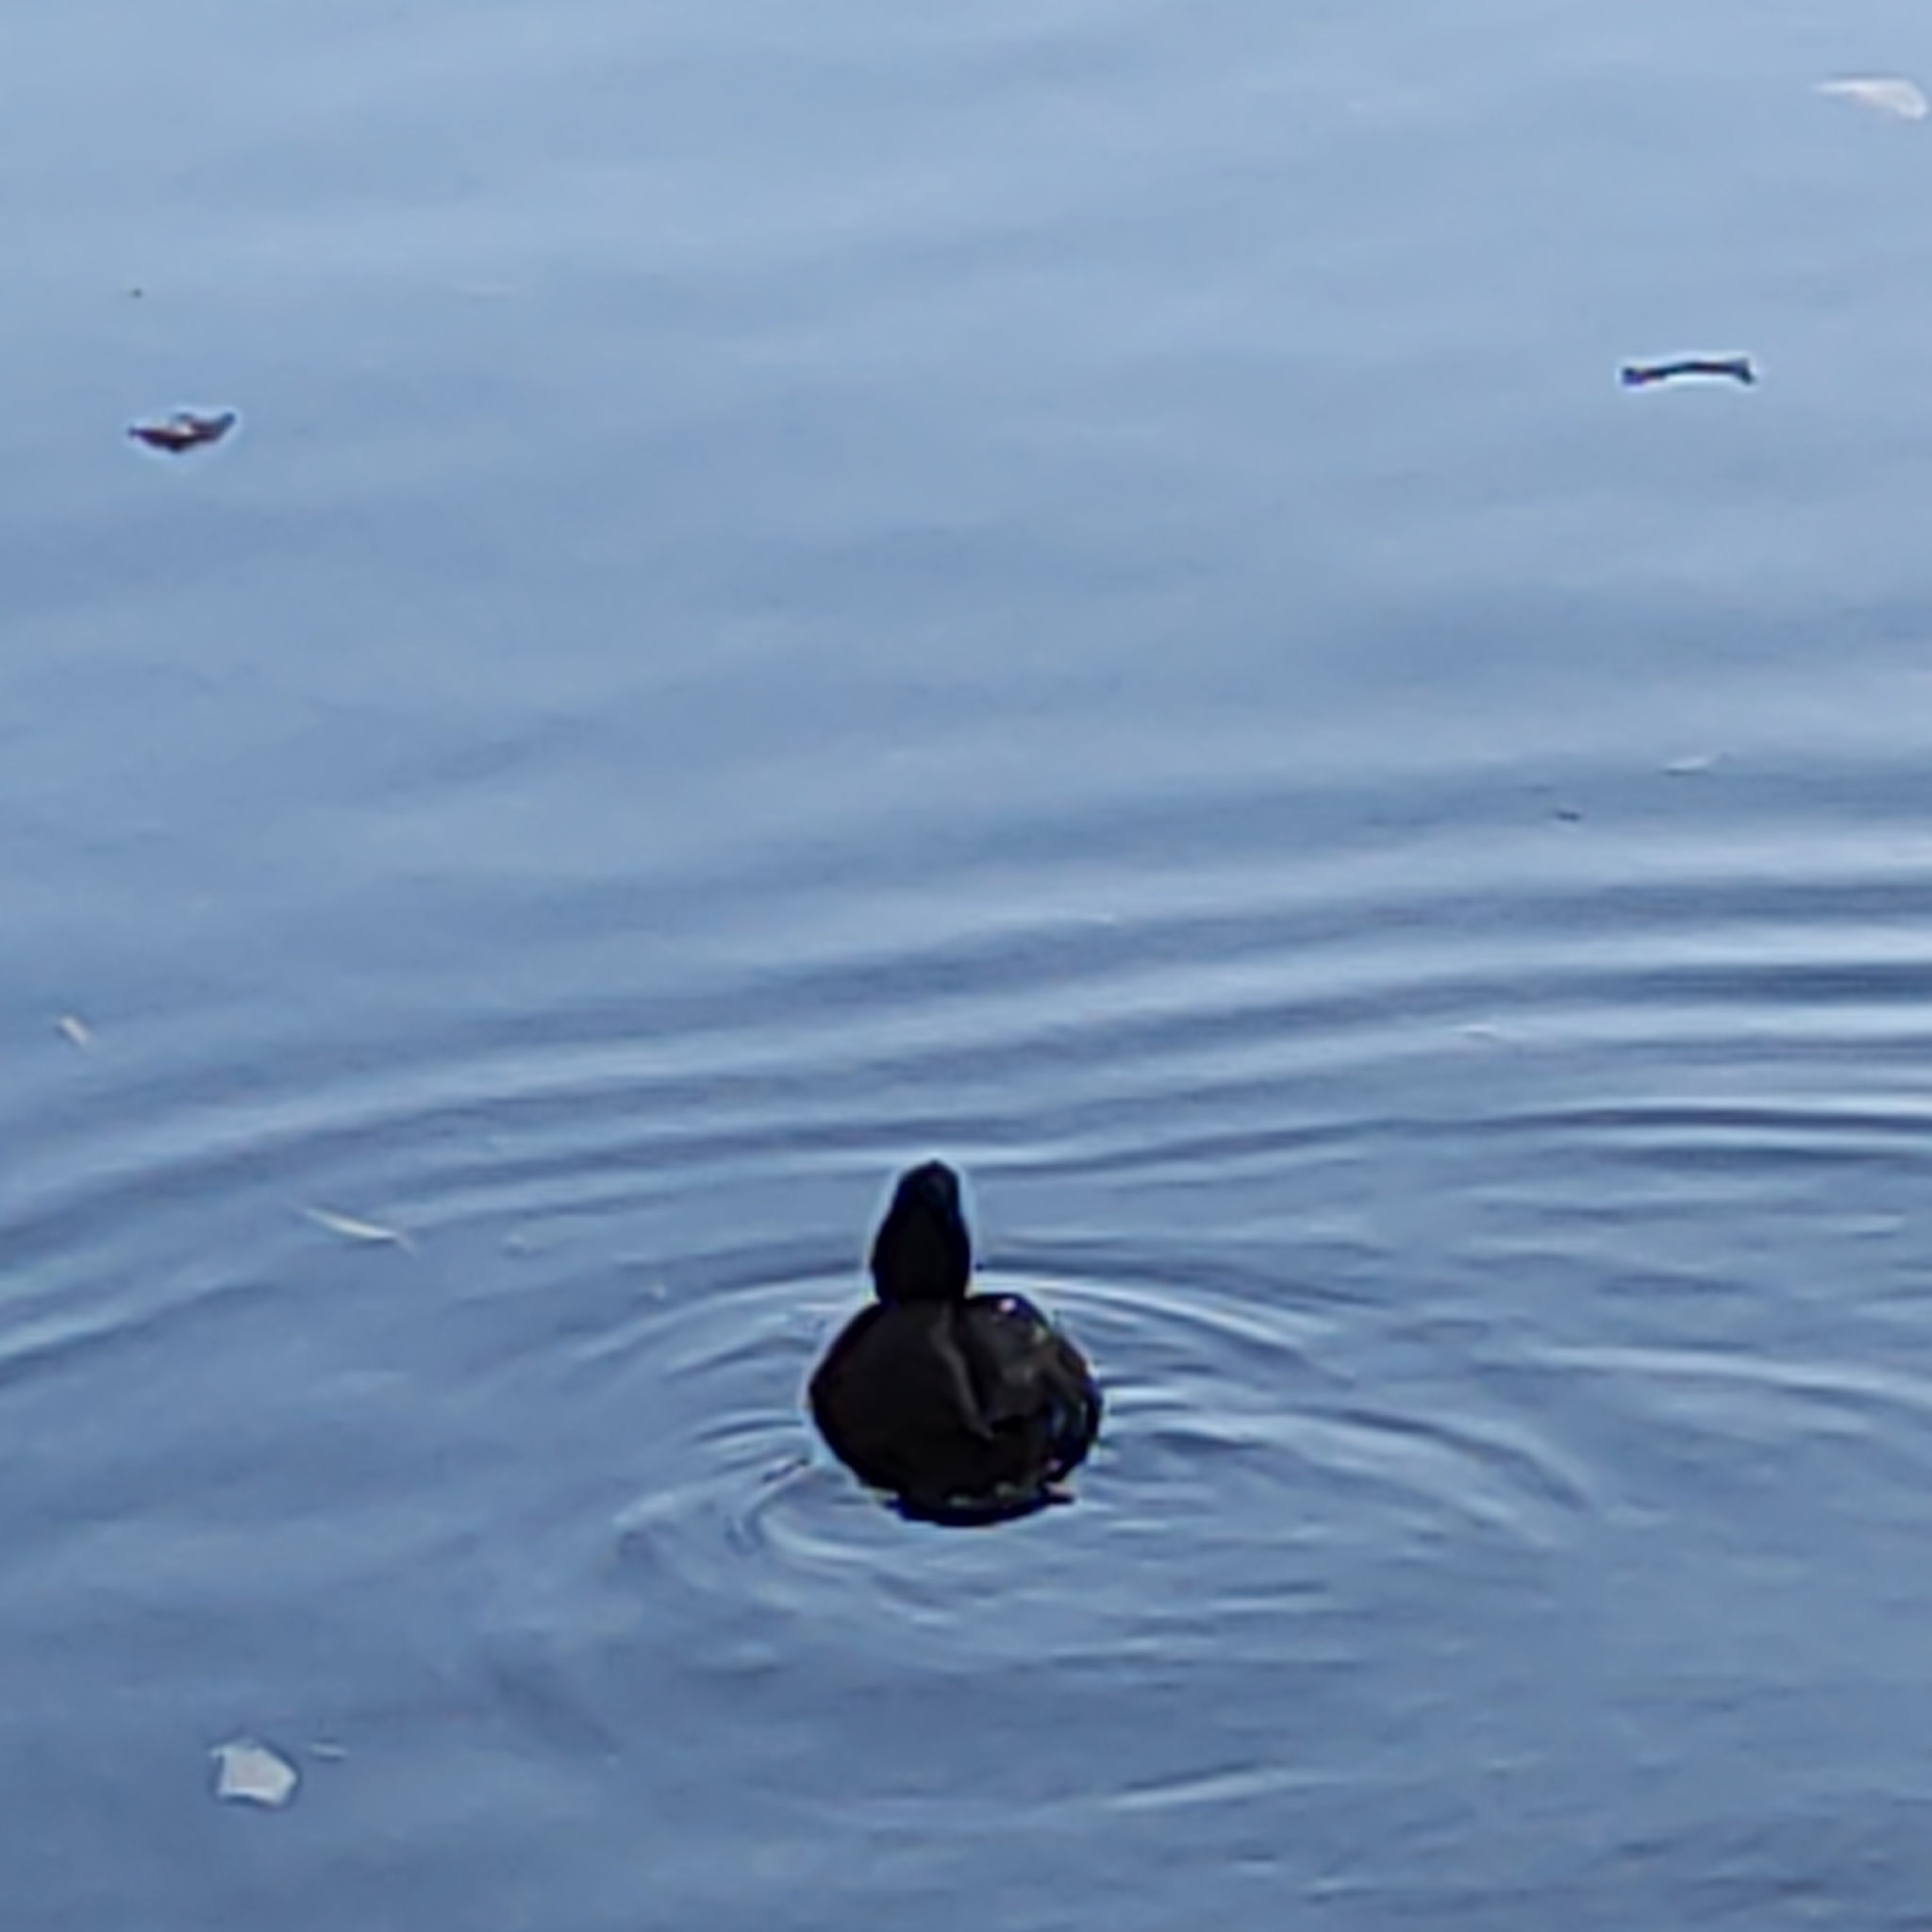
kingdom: Animalia
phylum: Chordata
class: Aves
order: Anseriformes
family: Anatidae
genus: Aythya
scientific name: Aythya novaeseelandiae
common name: New zealand scaup
